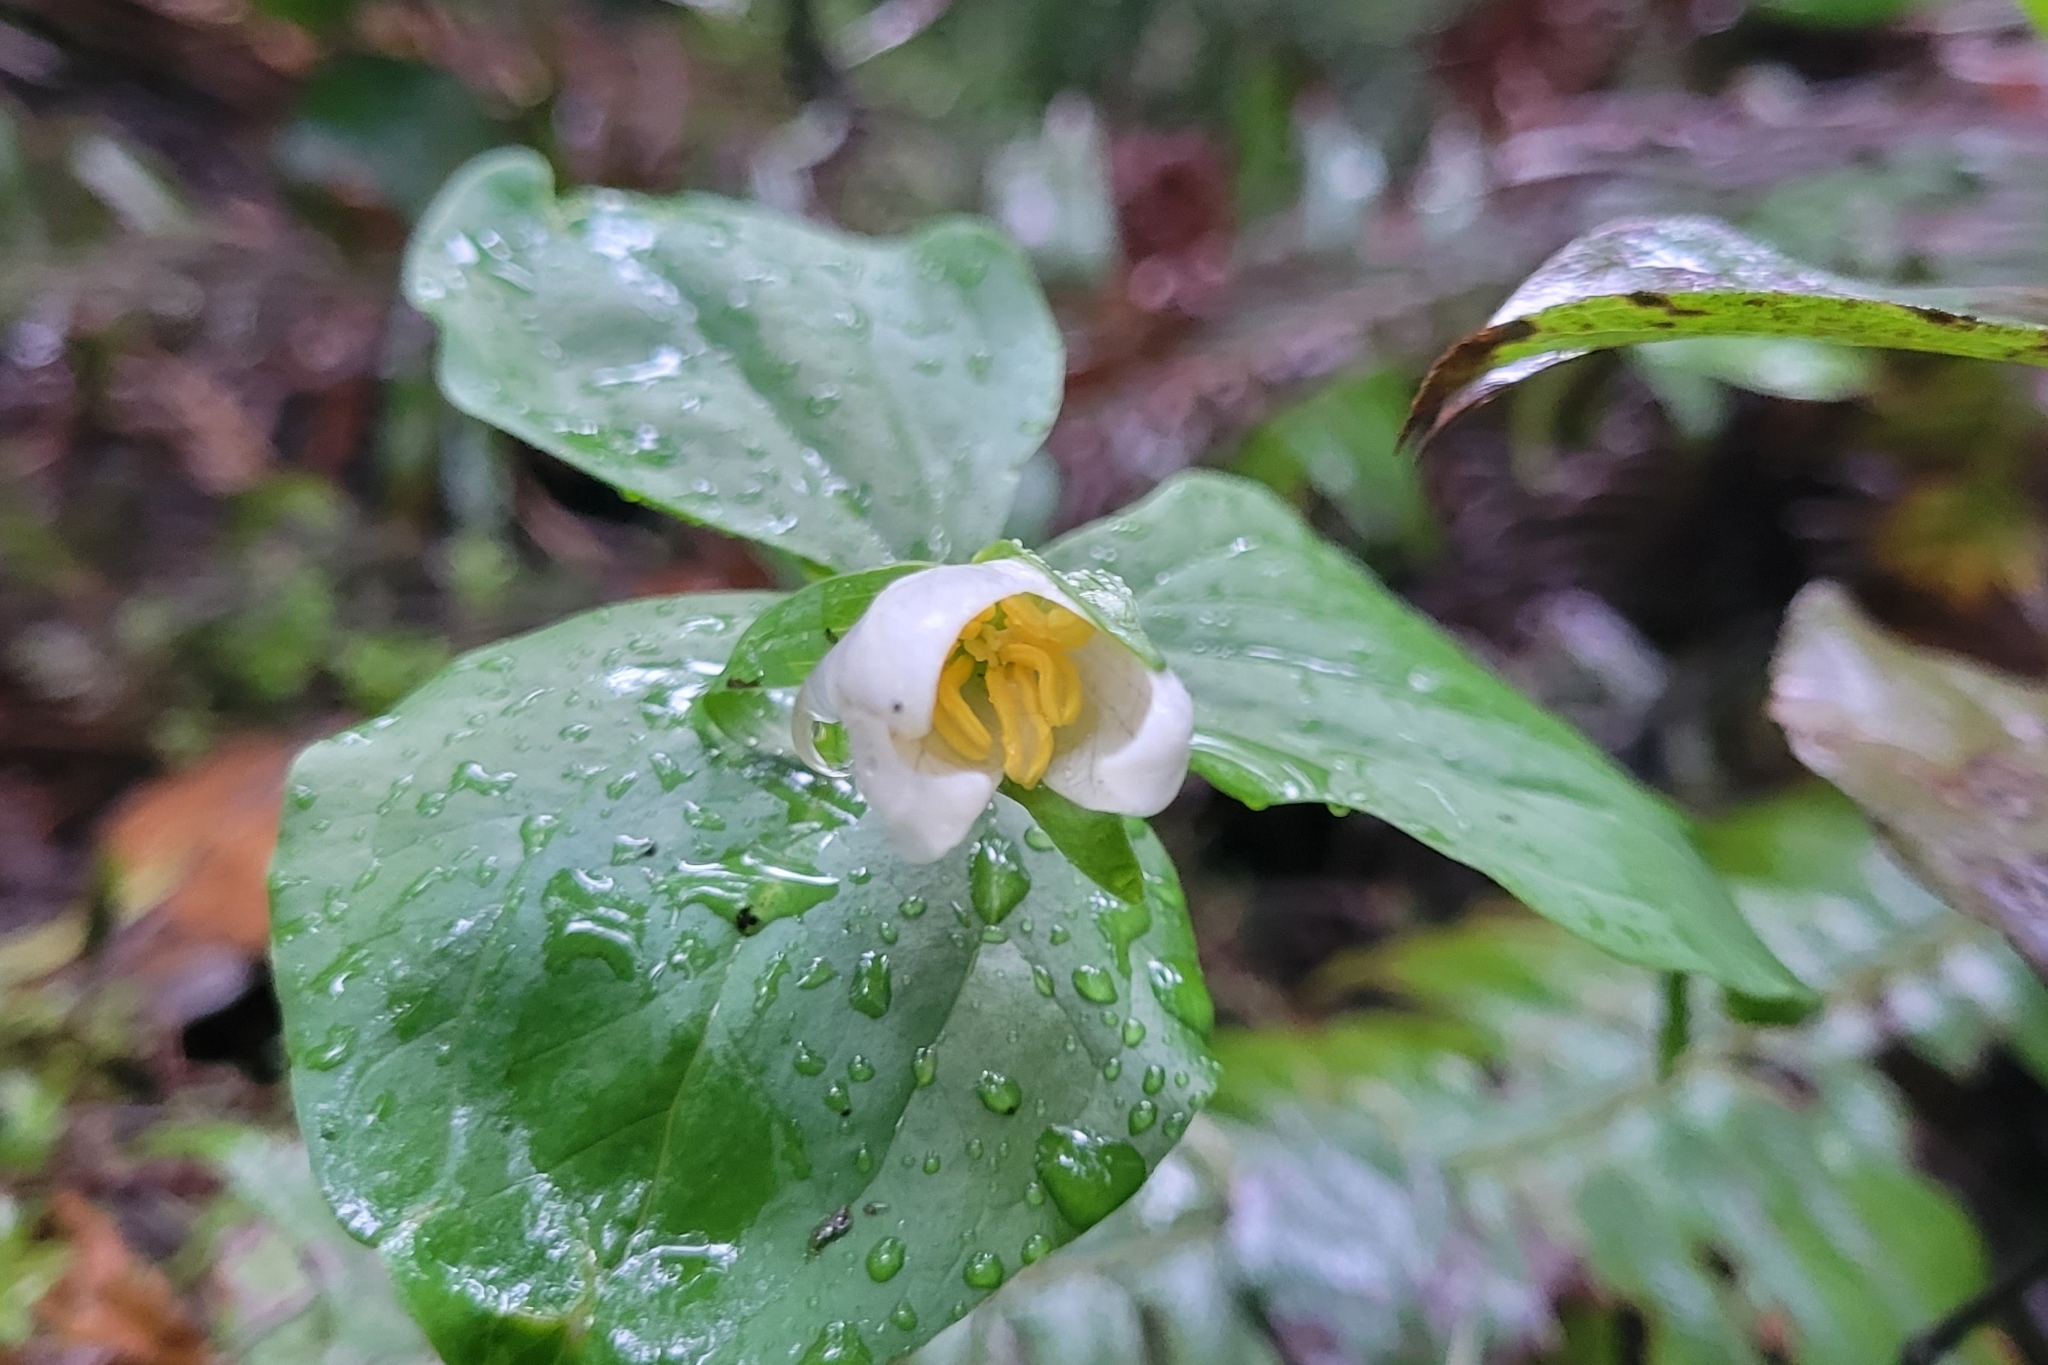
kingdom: Plantae
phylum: Tracheophyta
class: Liliopsida
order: Liliales
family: Melanthiaceae
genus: Trillium
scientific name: Trillium ovatum
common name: Pacific trillium
